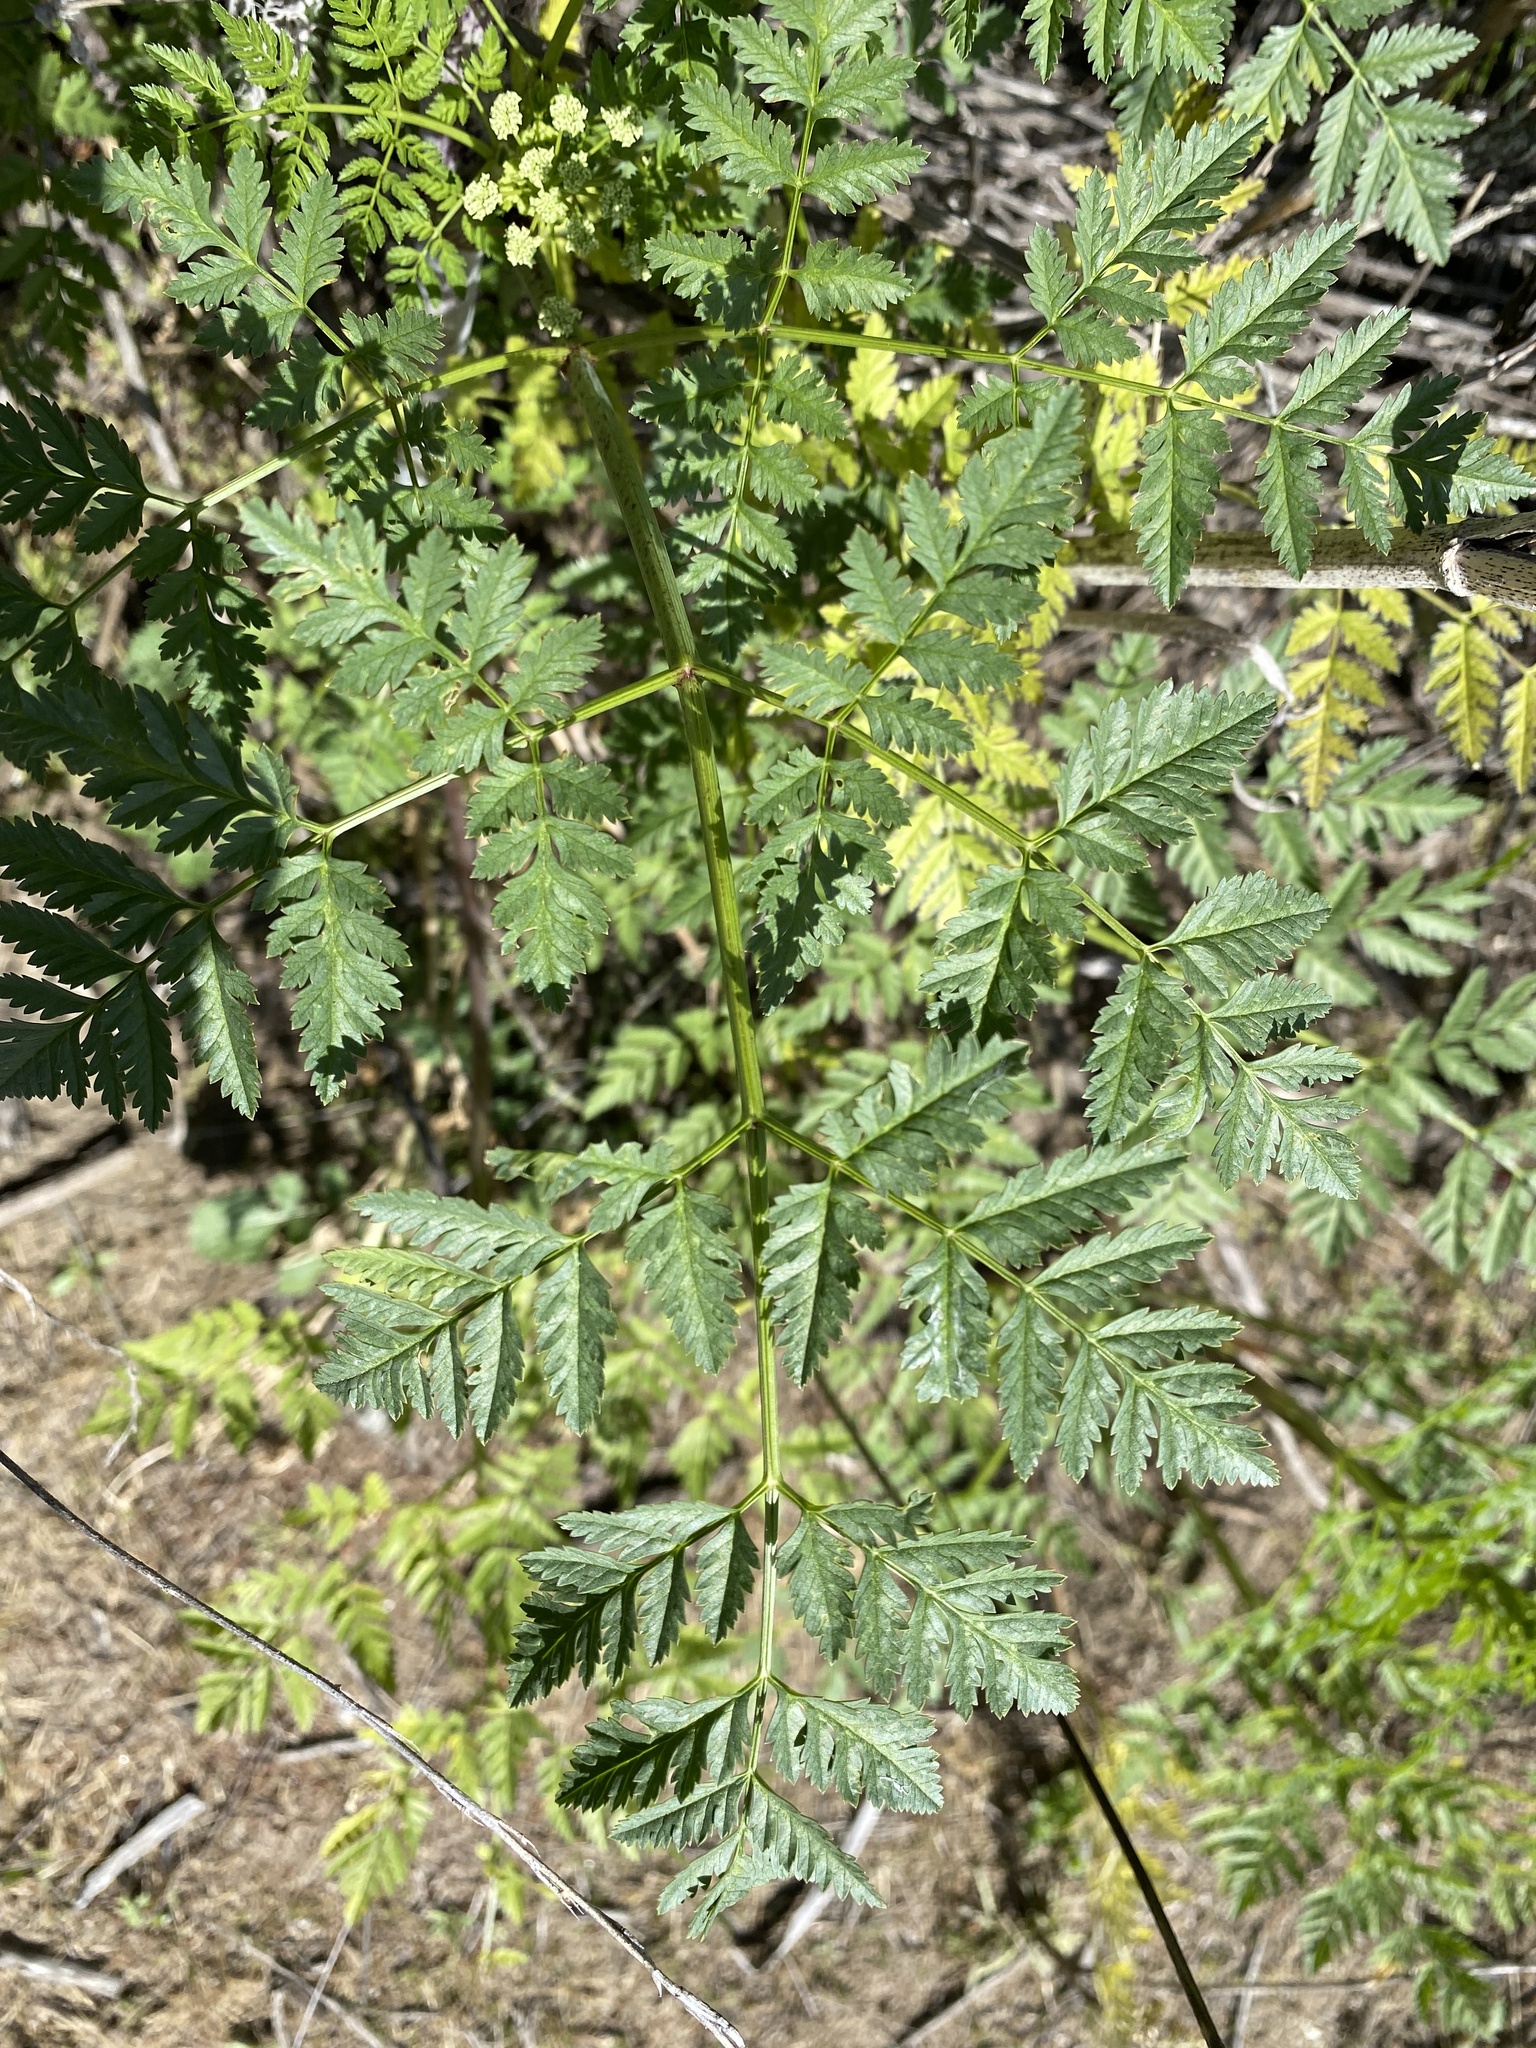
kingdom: Plantae
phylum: Tracheophyta
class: Magnoliopsida
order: Apiales
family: Apiaceae
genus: Conium
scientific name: Conium maculatum
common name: Hemlock
